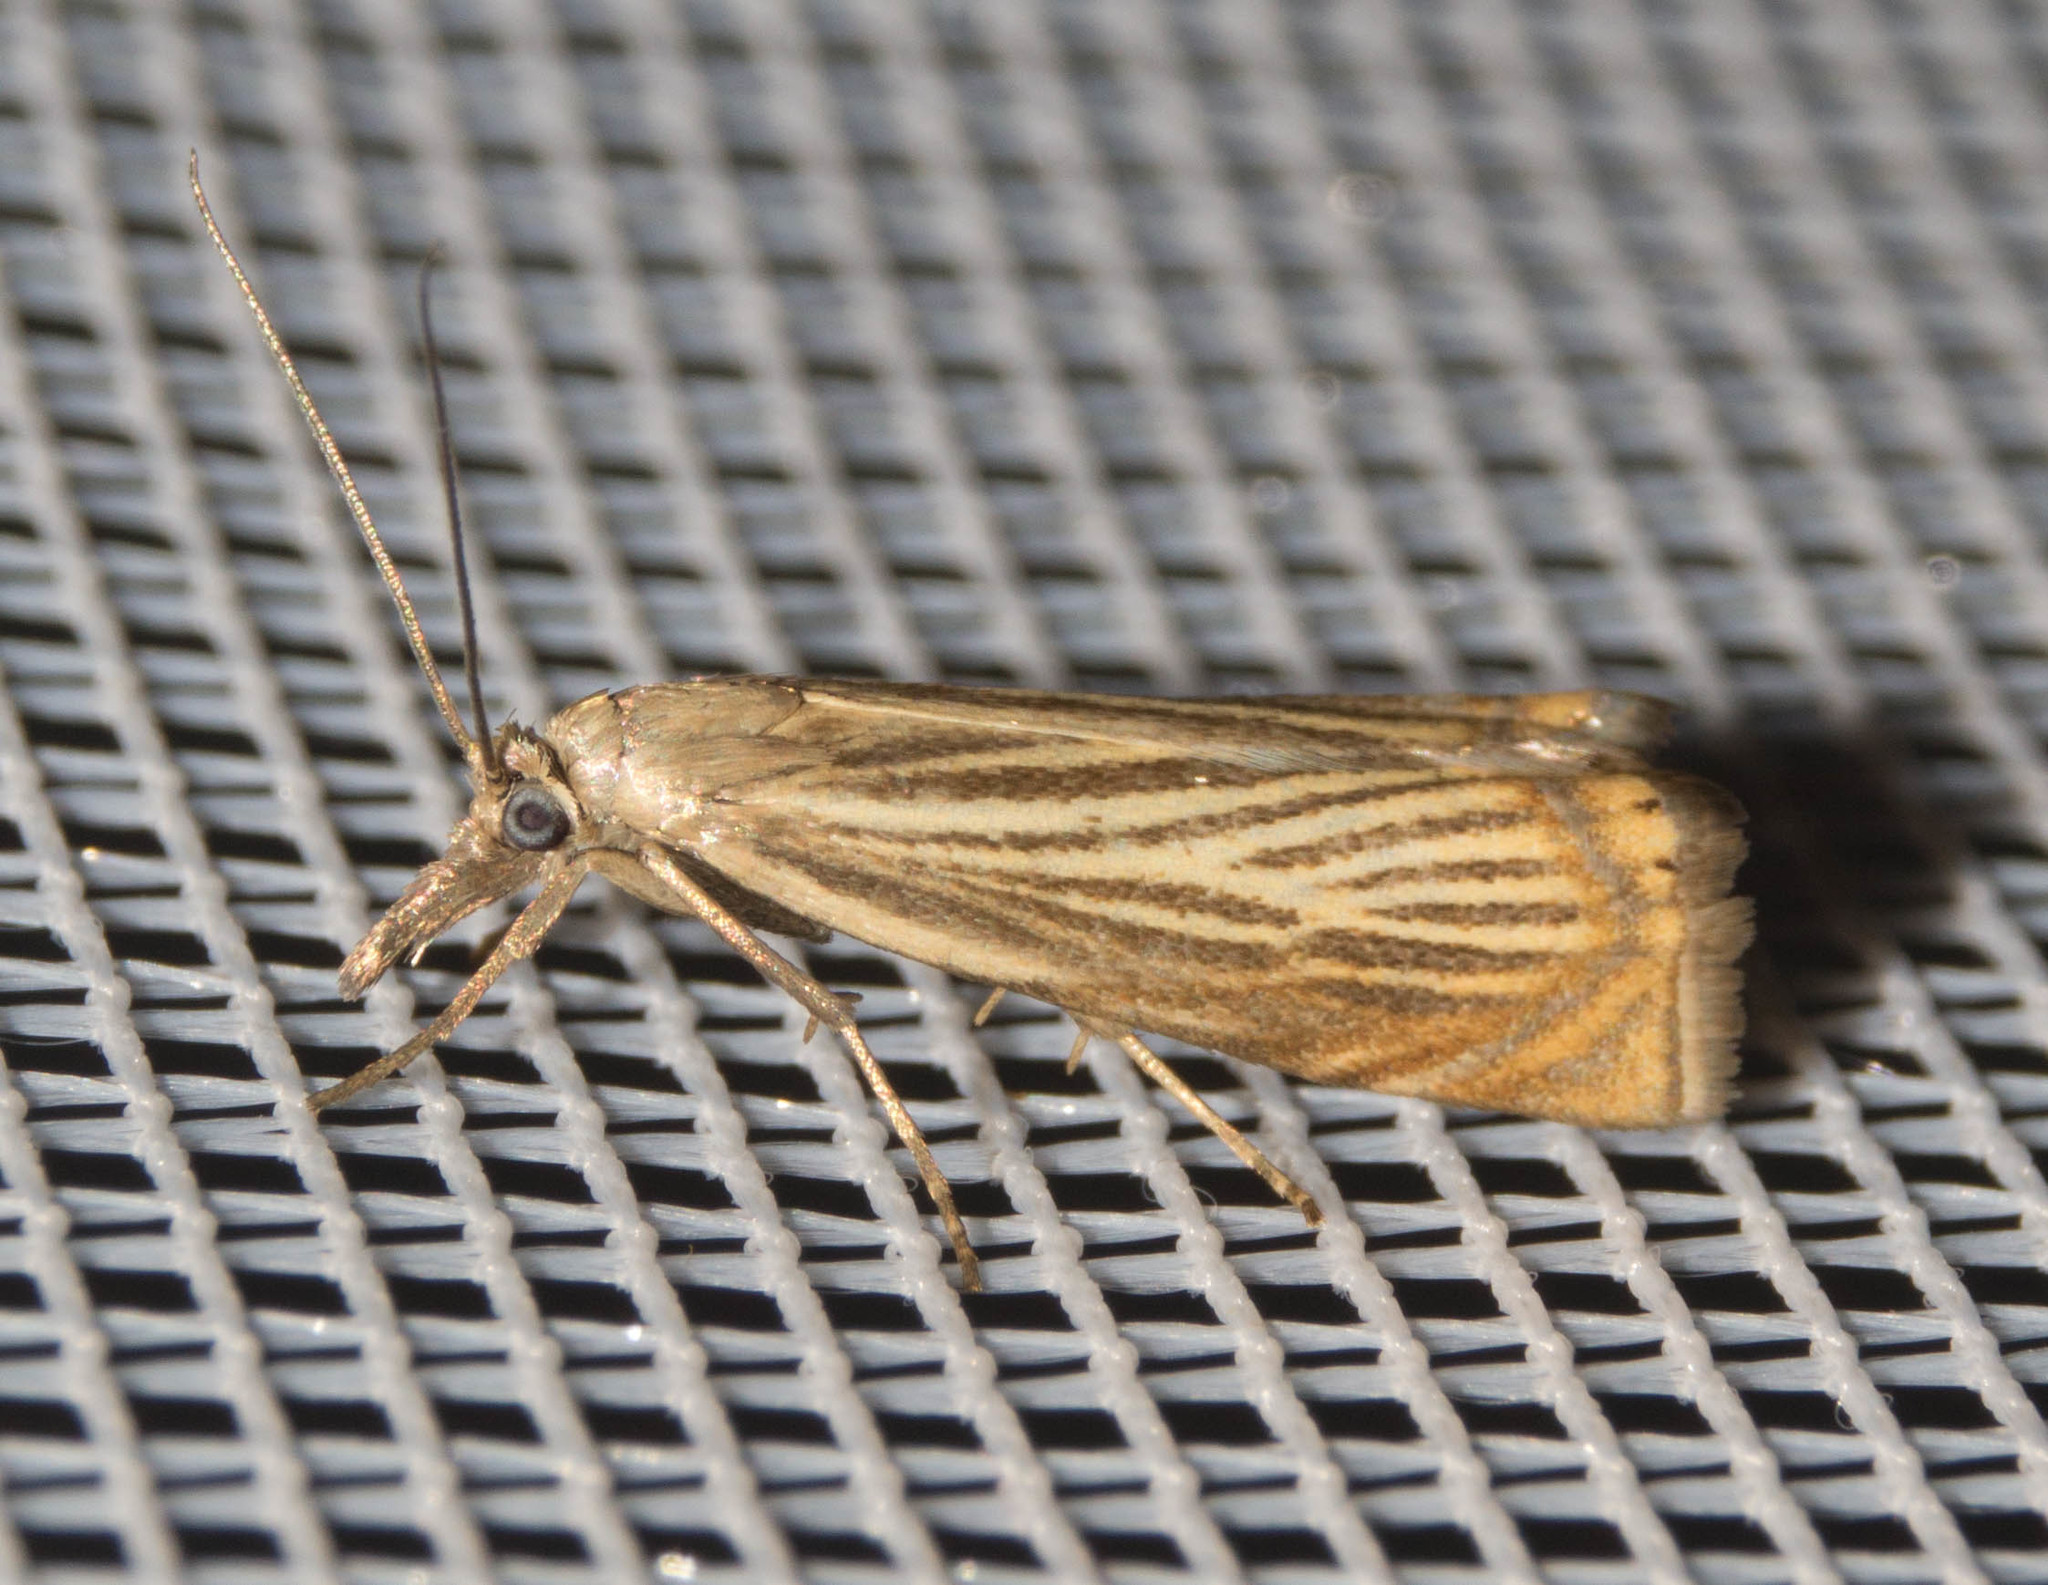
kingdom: Animalia
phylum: Arthropoda
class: Insecta
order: Lepidoptera
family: Crambidae
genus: Chrysoteuchia
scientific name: Chrysoteuchia culmella
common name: Garden grass-veneer
